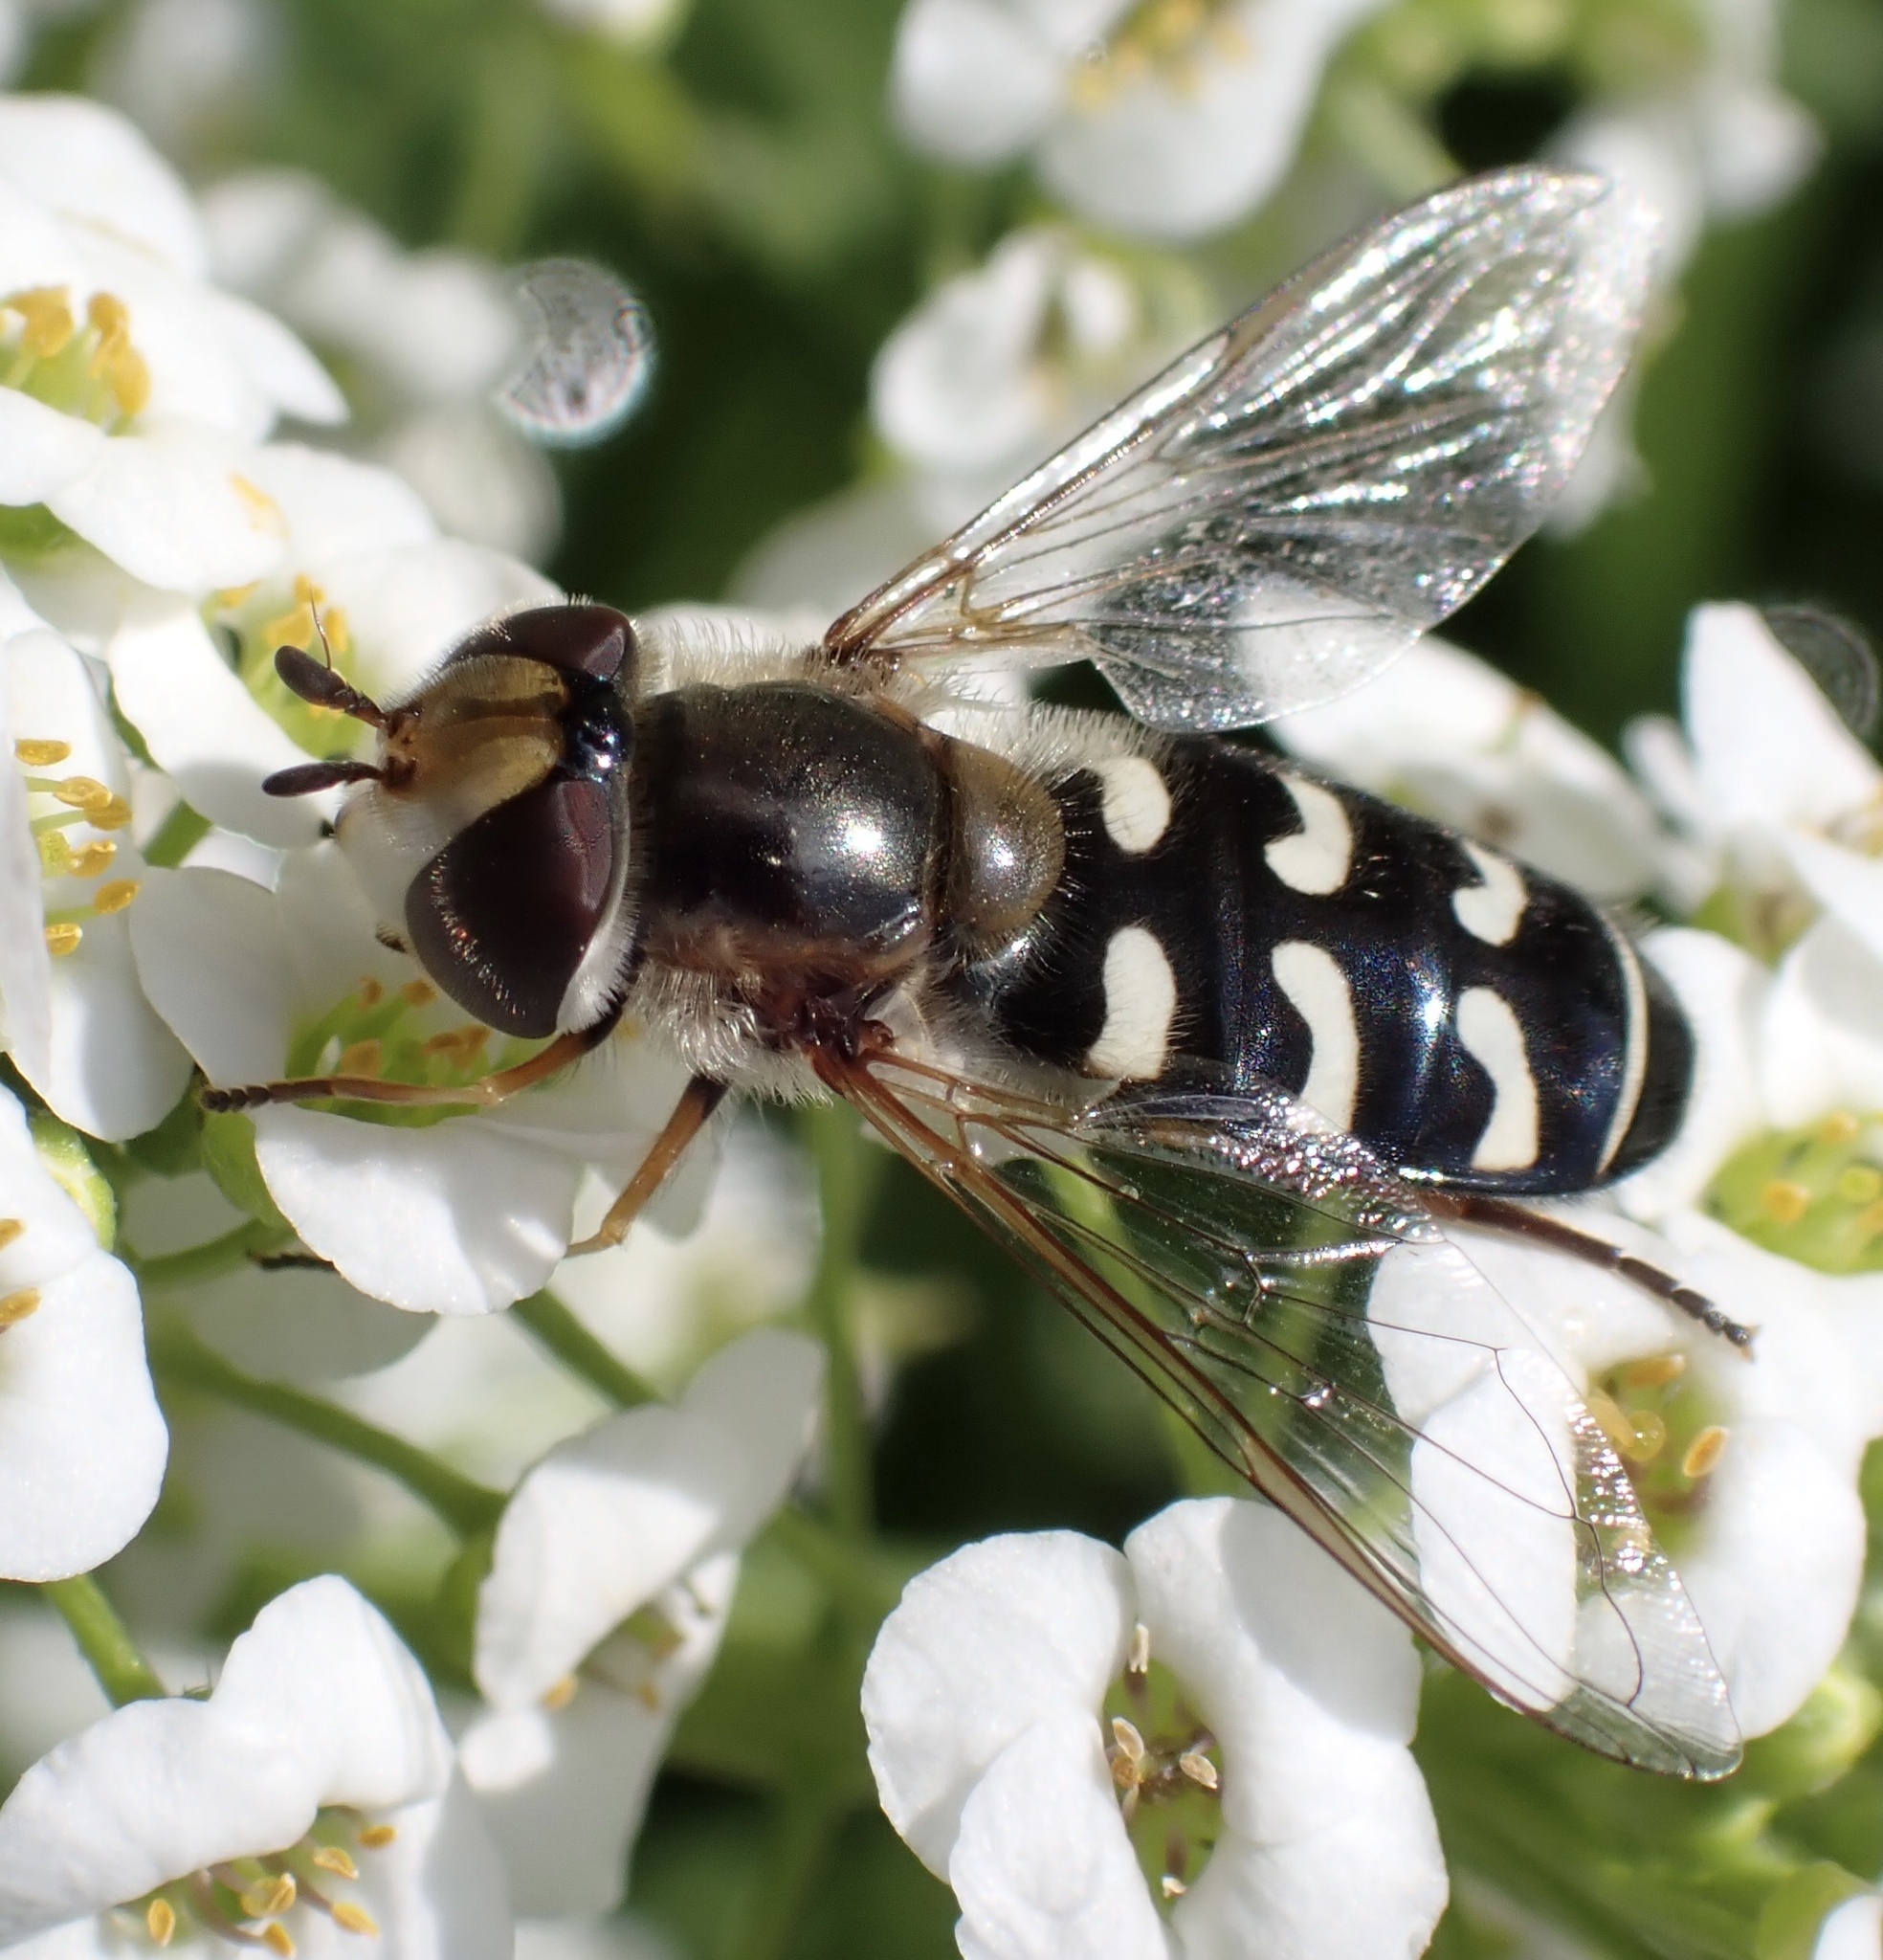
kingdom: Animalia
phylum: Arthropoda
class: Insecta
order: Diptera
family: Syrphidae
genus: Scaeva
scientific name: Scaeva pyrastri
